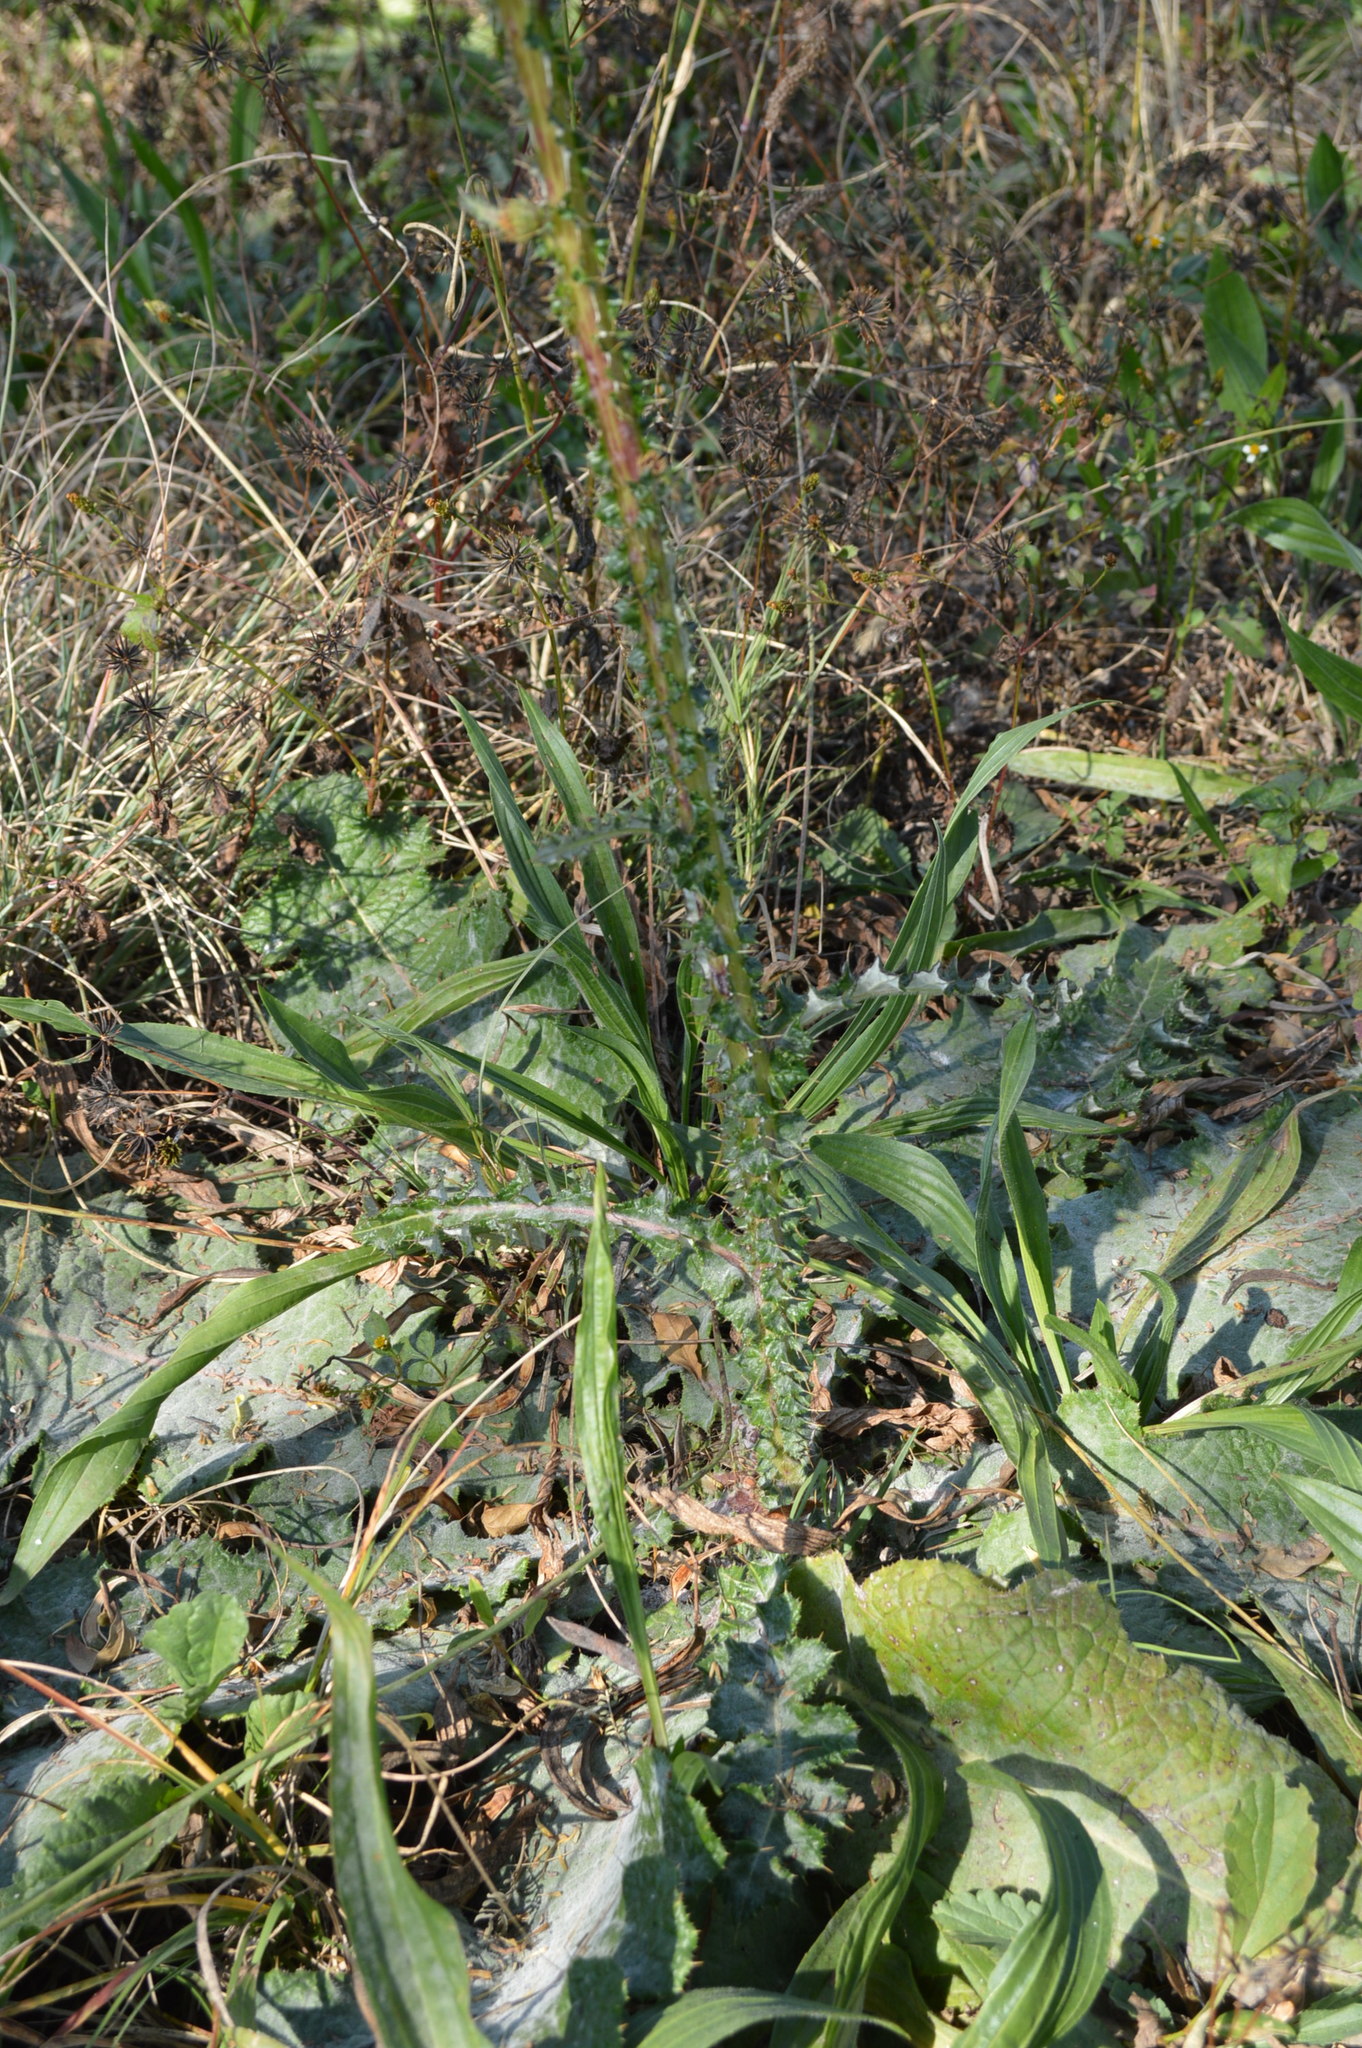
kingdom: Plantae
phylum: Tracheophyta
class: Magnoliopsida
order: Asterales
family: Asteraceae
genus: Berkheya
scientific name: Berkheya radula
